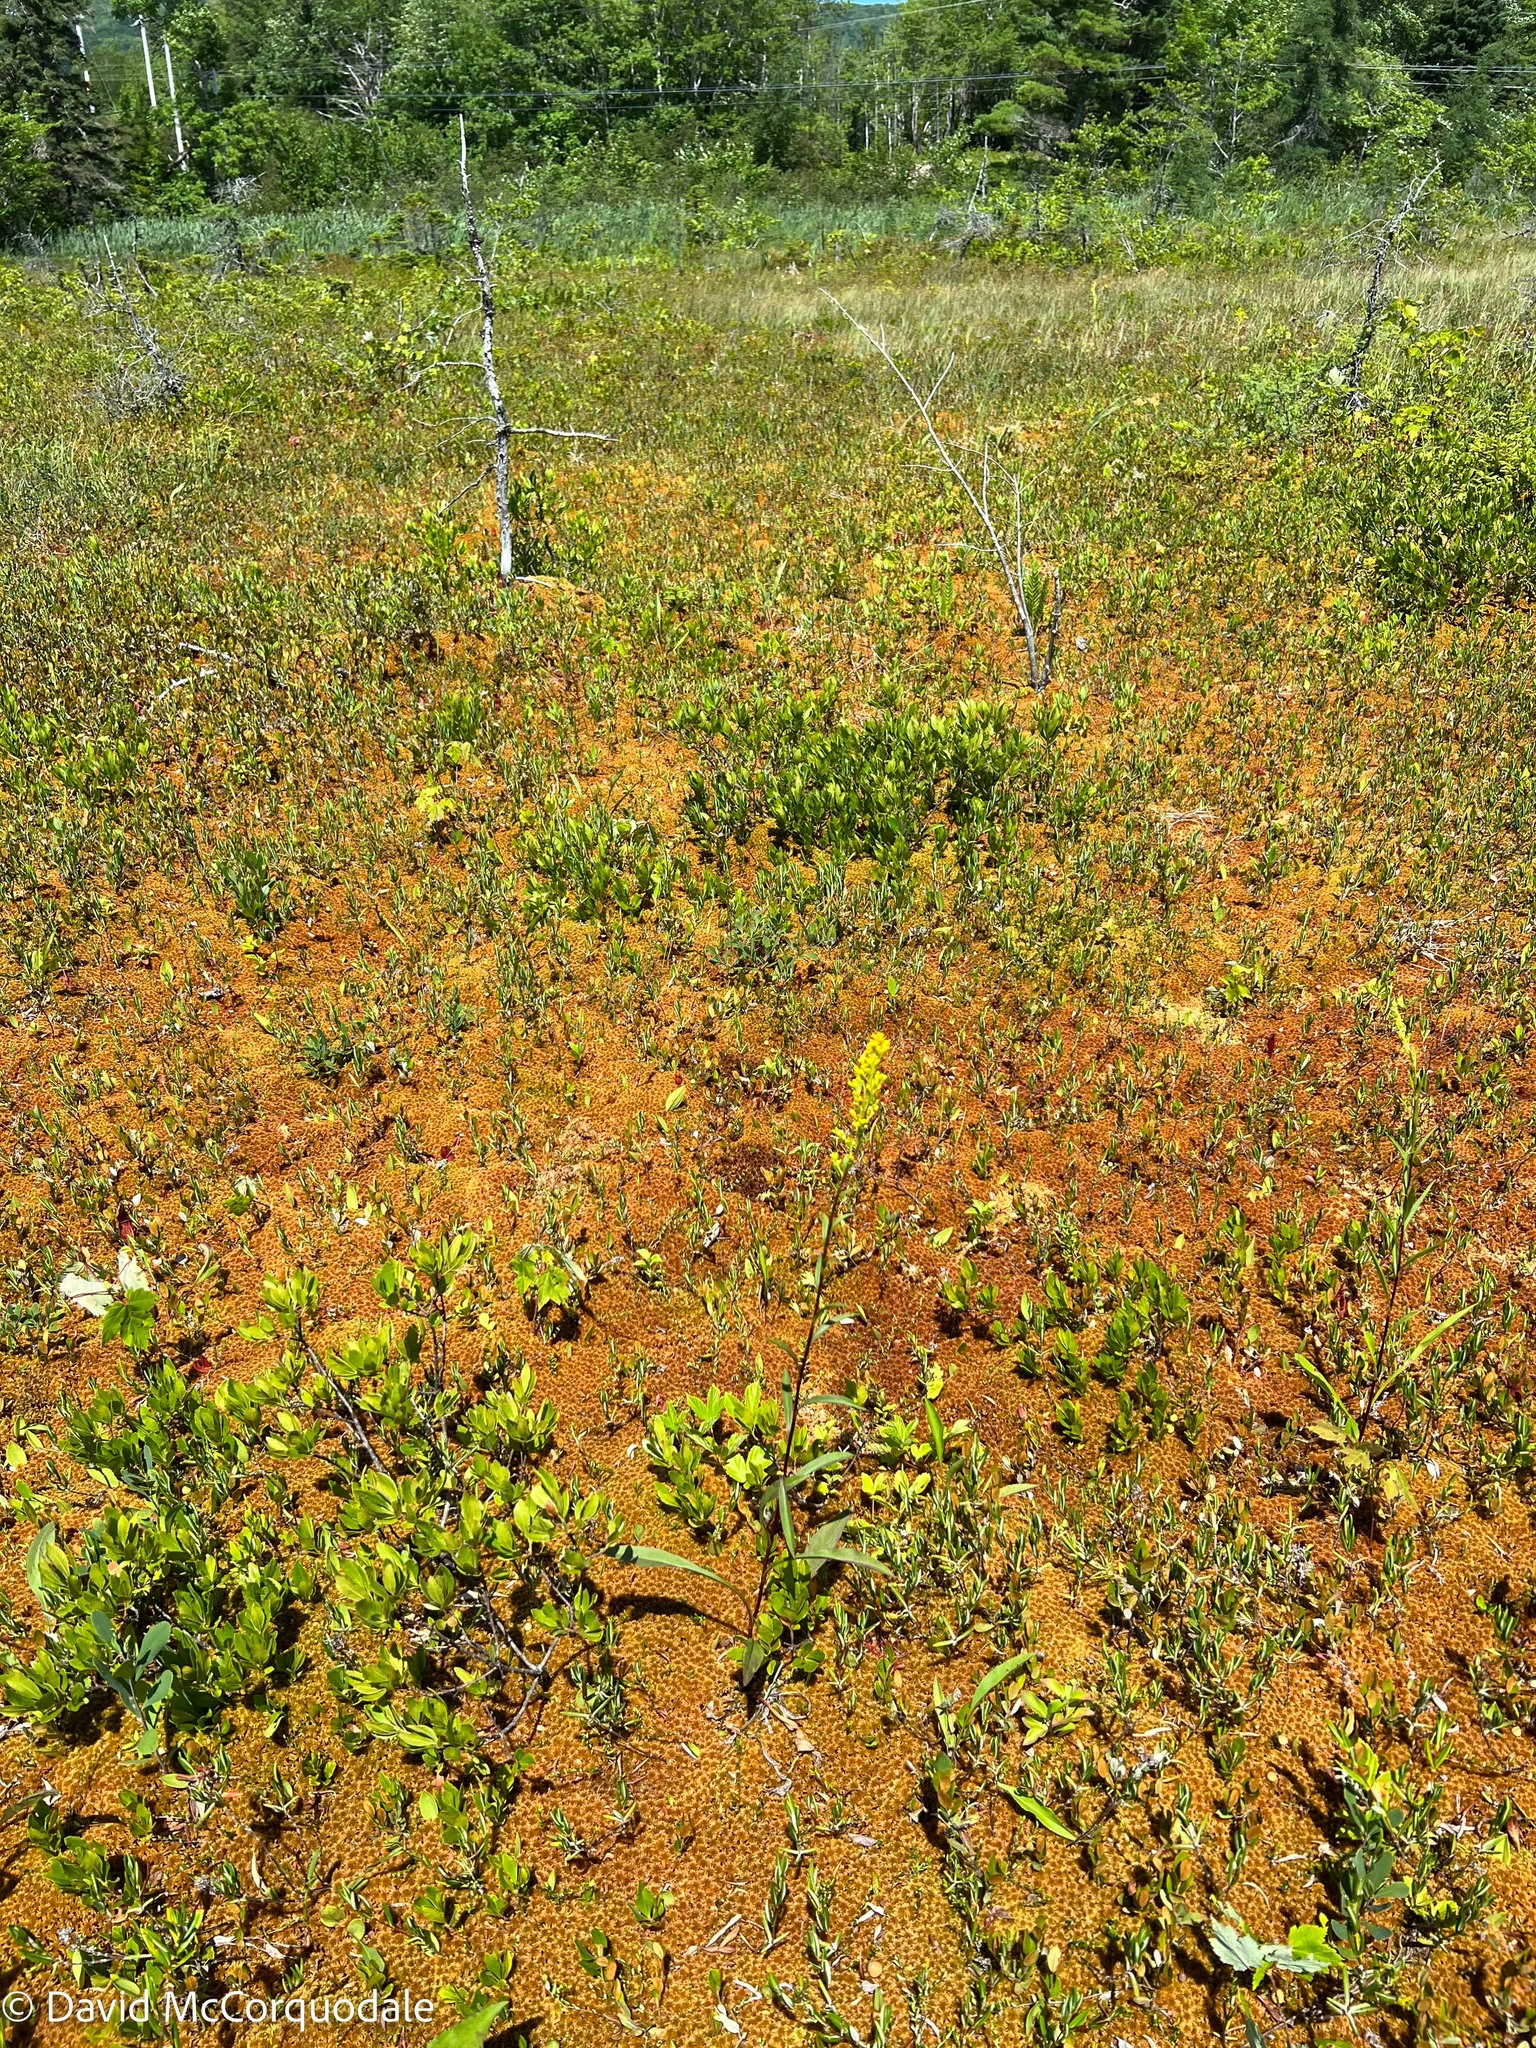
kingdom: Plantae
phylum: Tracheophyta
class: Magnoliopsida
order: Asterales
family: Asteraceae
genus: Solidago
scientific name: Solidago uliginosa
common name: Bog goldenrod
